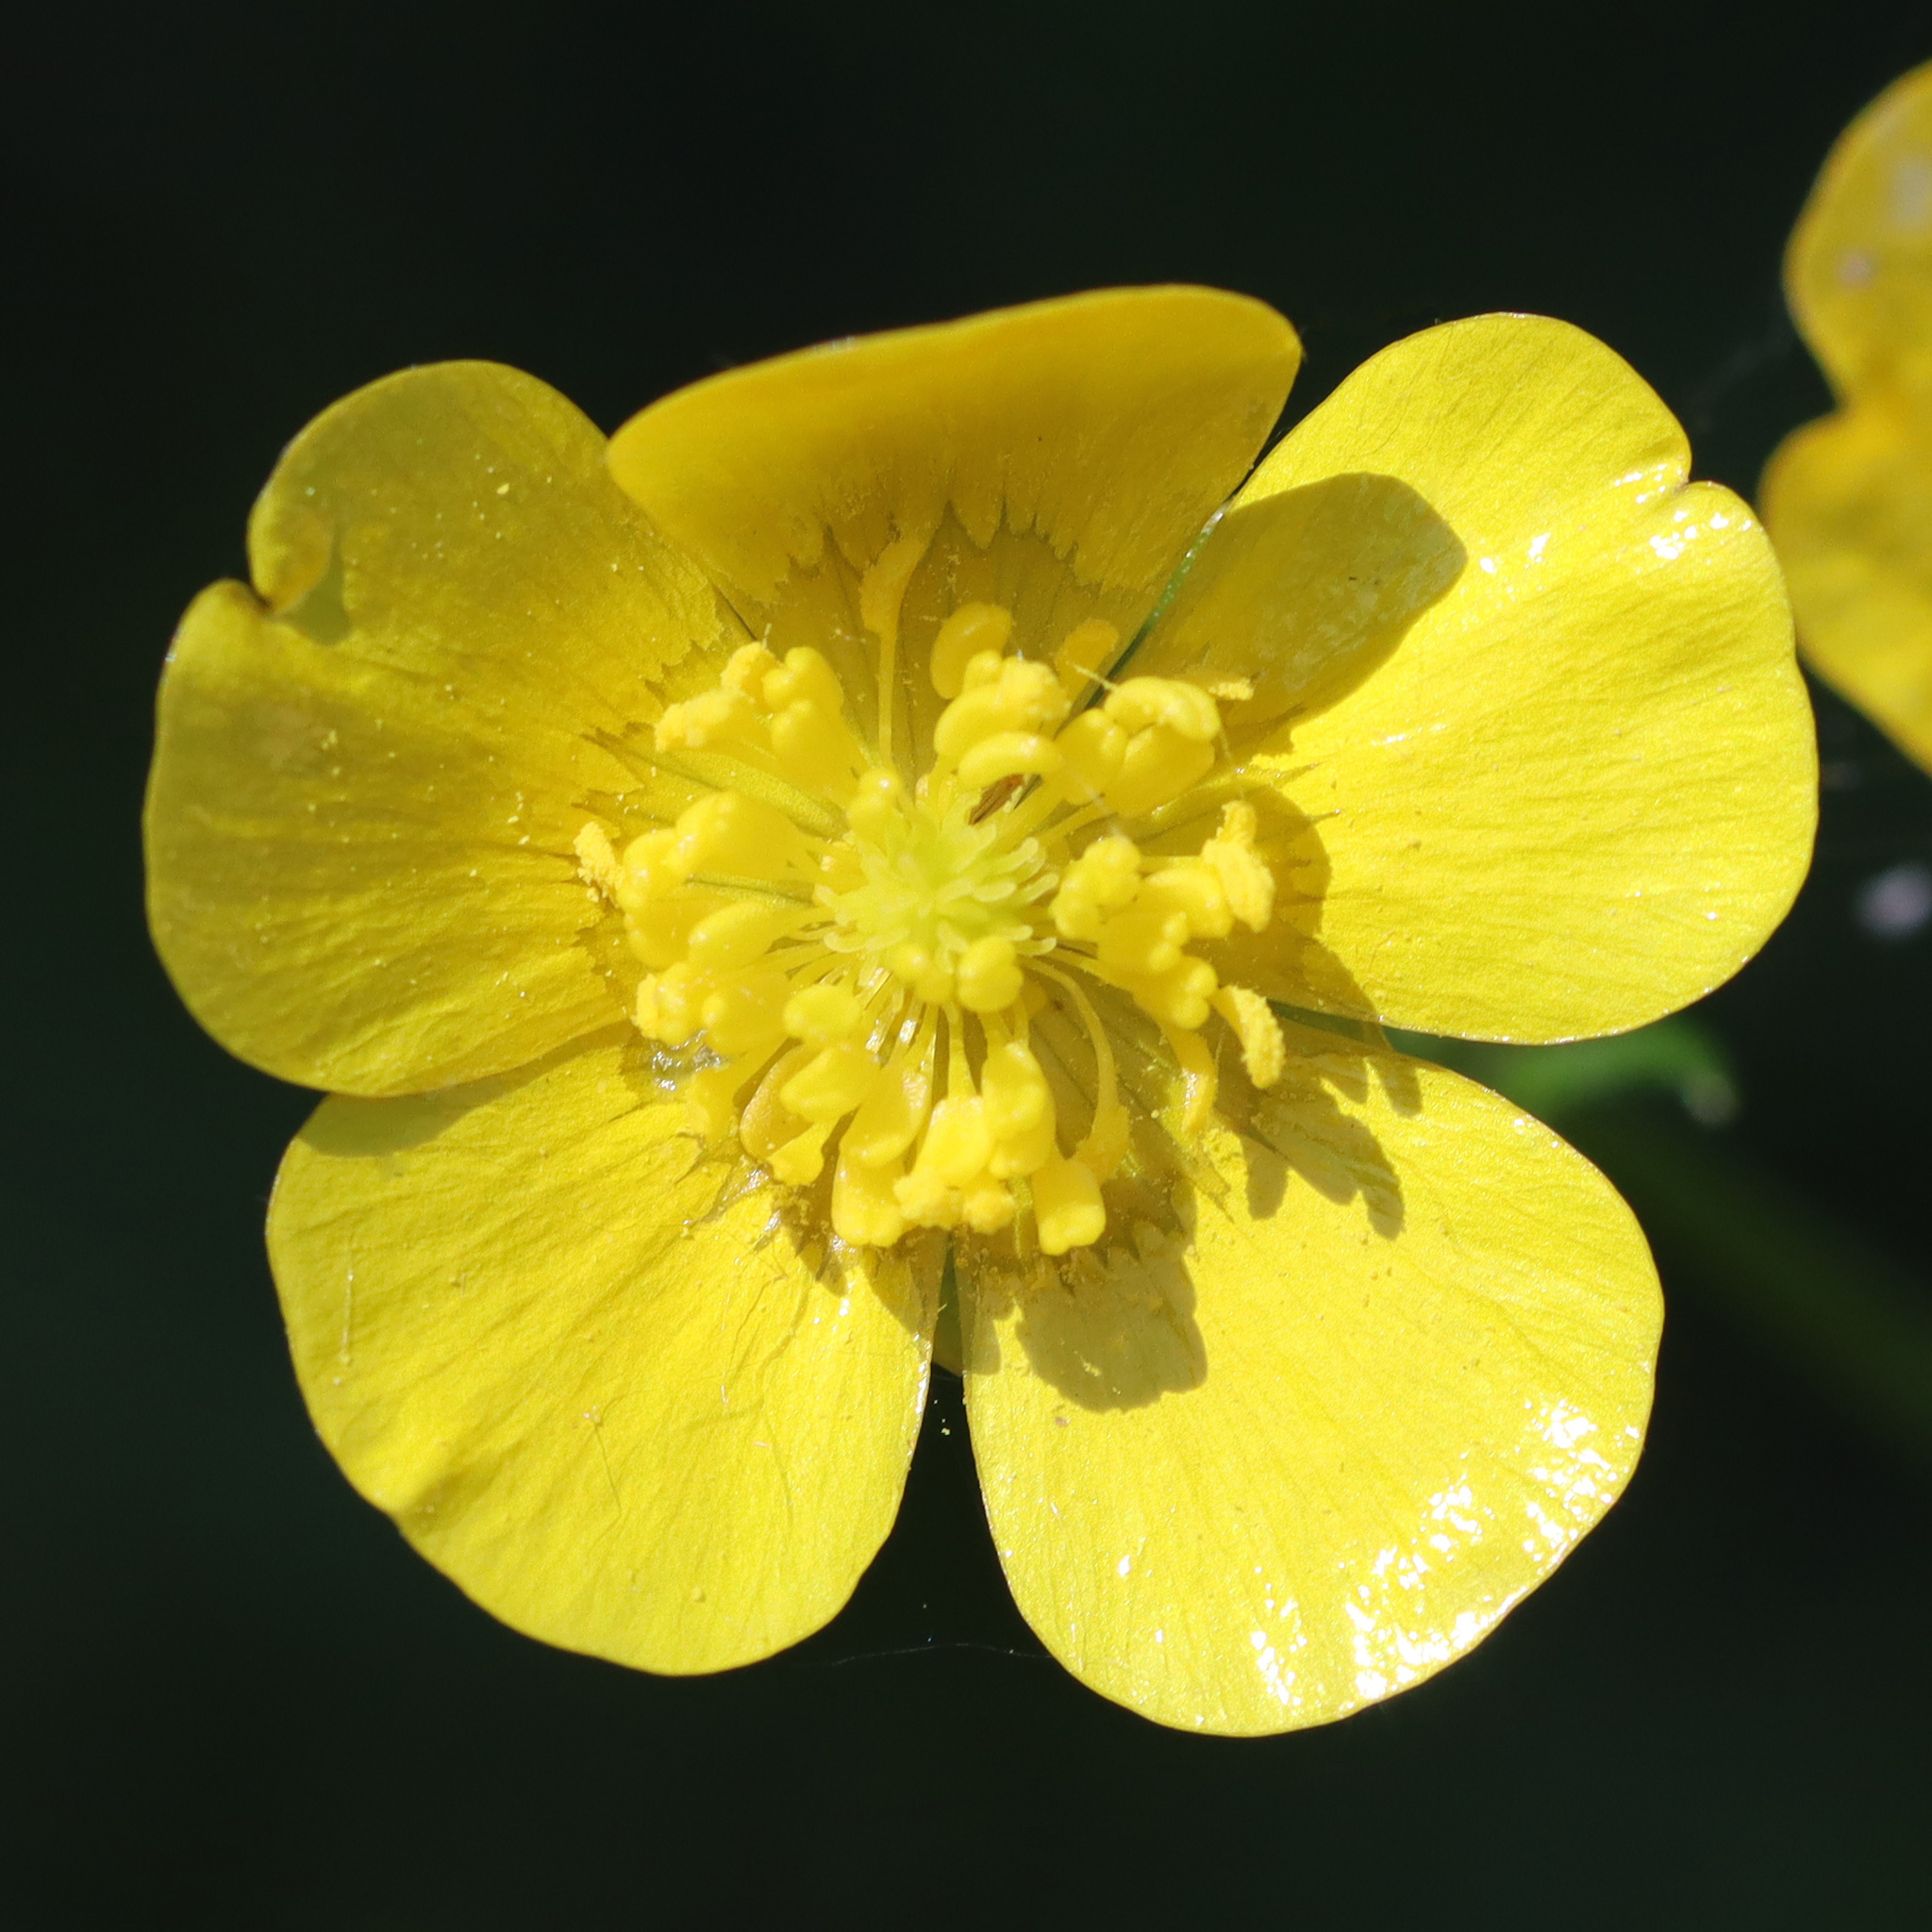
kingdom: Plantae
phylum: Tracheophyta
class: Magnoliopsida
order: Ranunculales
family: Ranunculaceae
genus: Ranunculus
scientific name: Ranunculus acris
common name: Meadow buttercup
